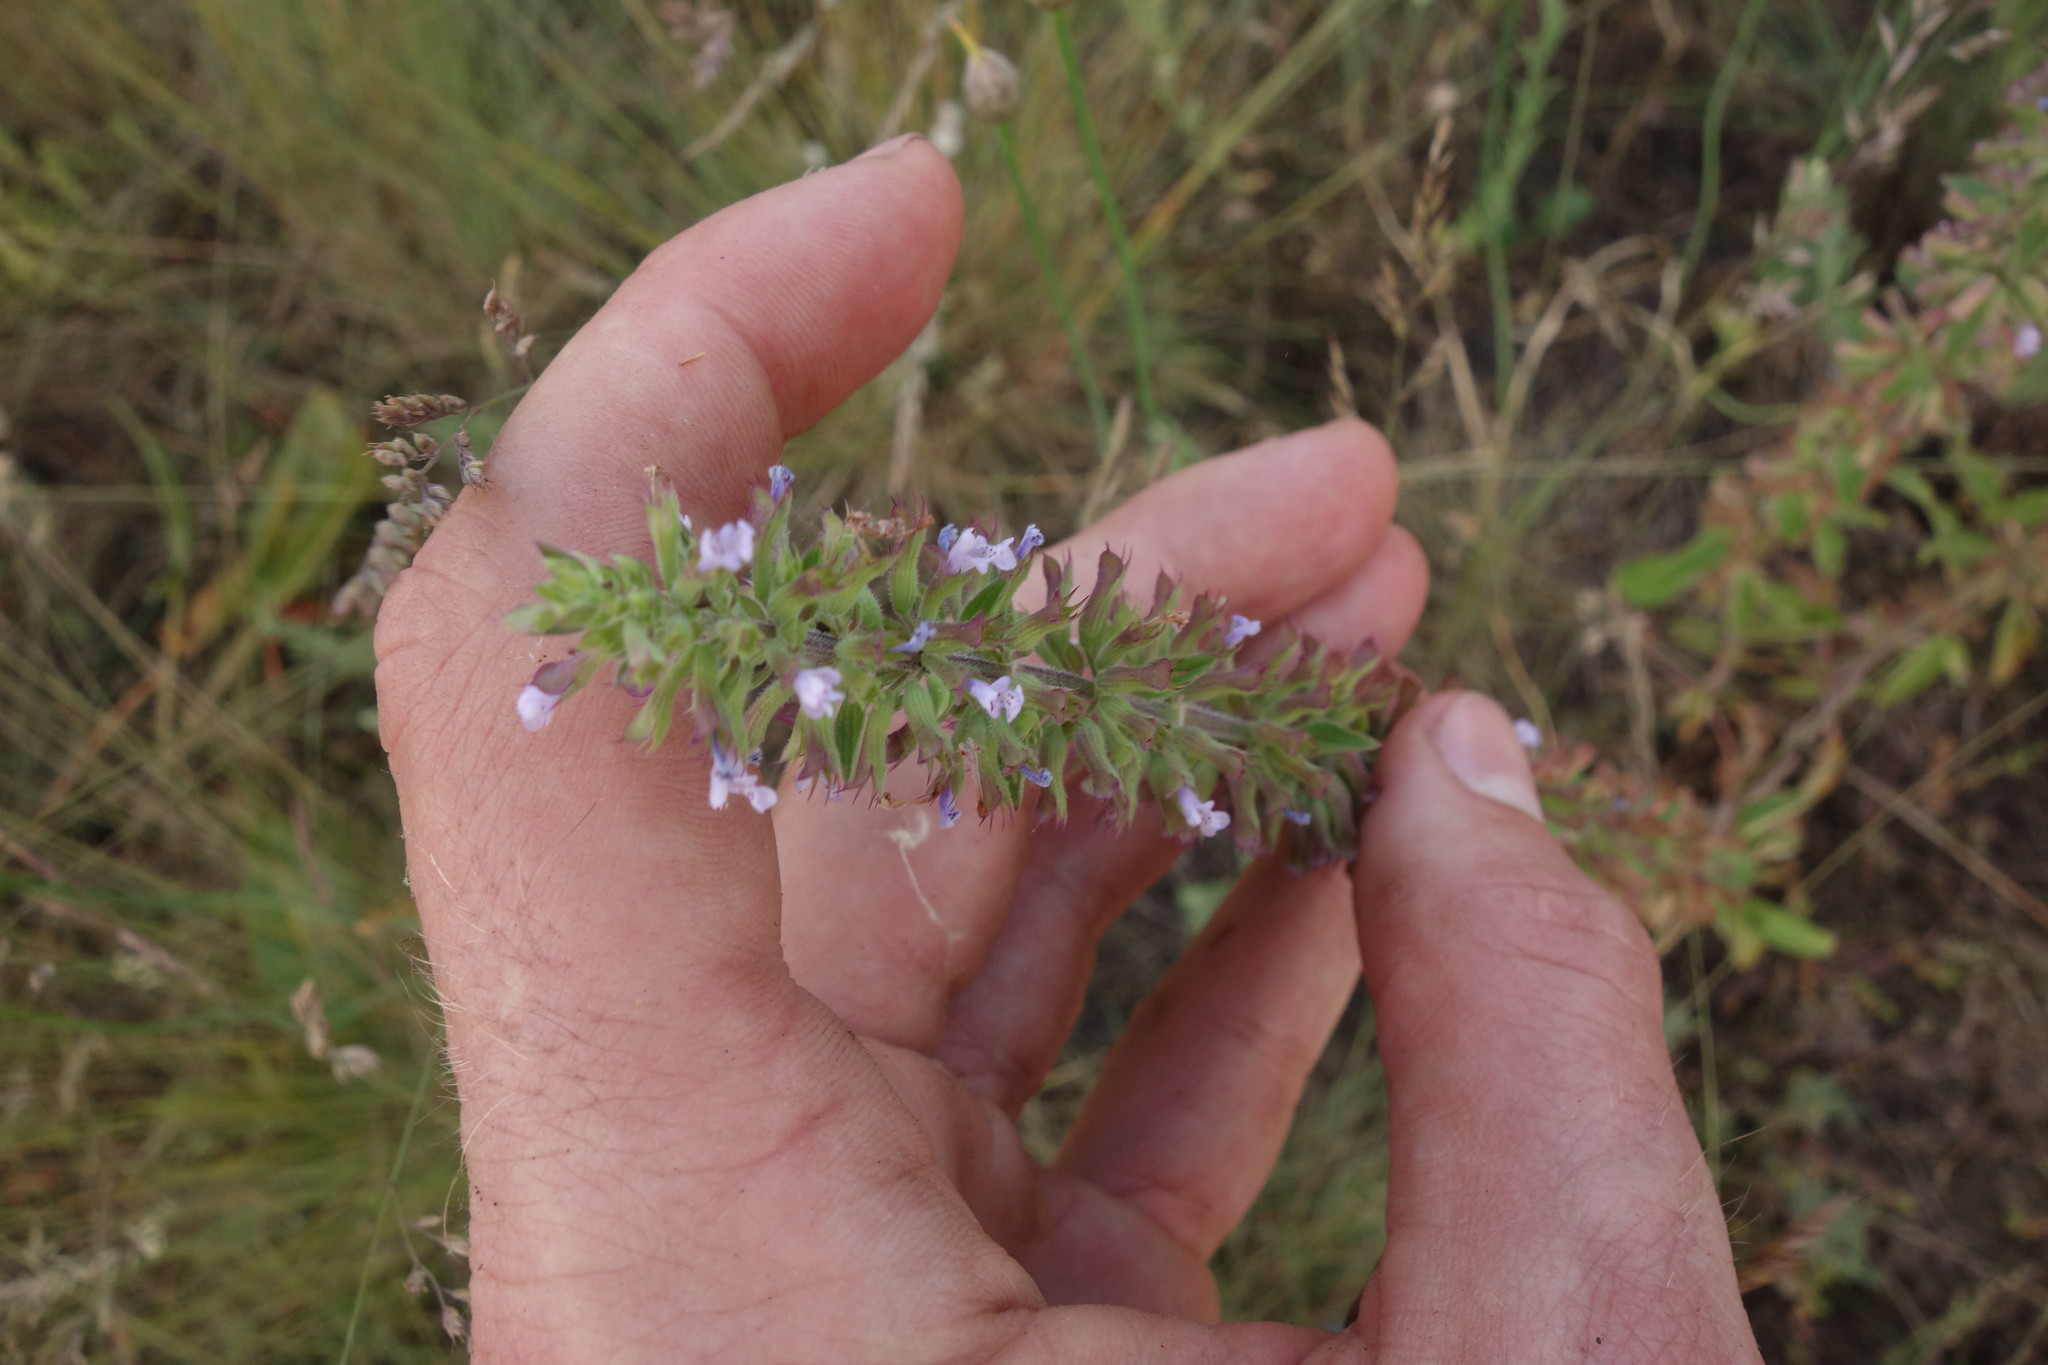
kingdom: Plantae
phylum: Tracheophyta
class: Magnoliopsida
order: Lamiales
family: Lamiaceae
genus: Dracocephalum
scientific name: Dracocephalum thymiflorum
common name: Thymeleaf dragonhead
